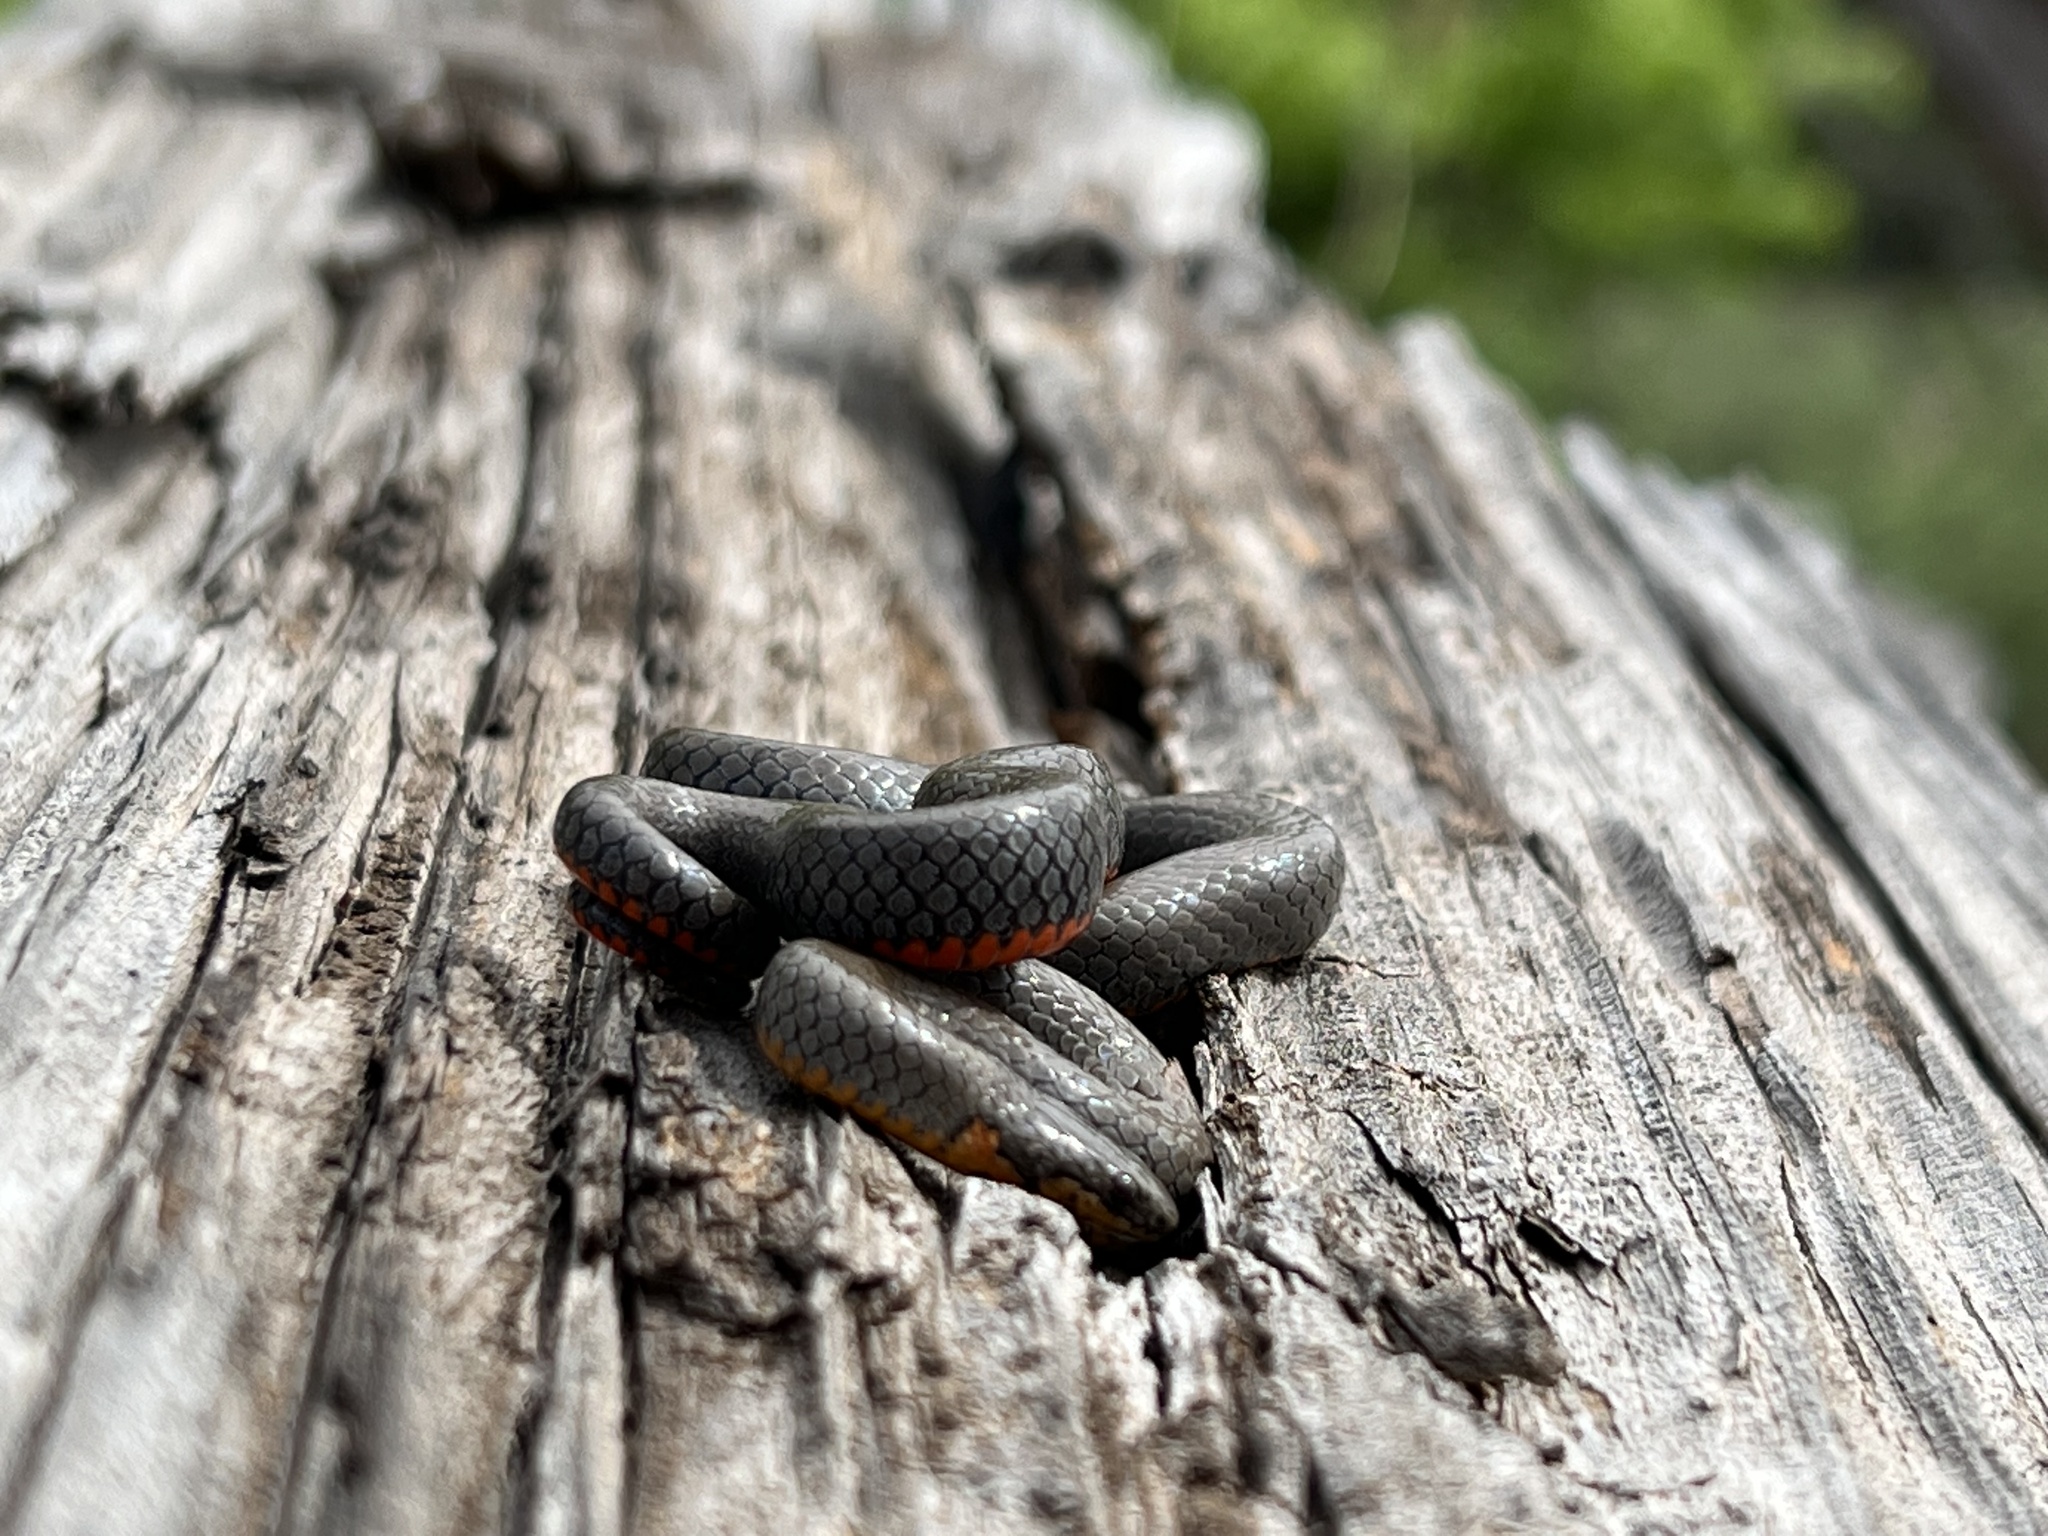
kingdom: Animalia
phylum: Chordata
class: Squamata
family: Colubridae
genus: Diadophis
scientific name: Diadophis punctatus
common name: Ringneck snake
